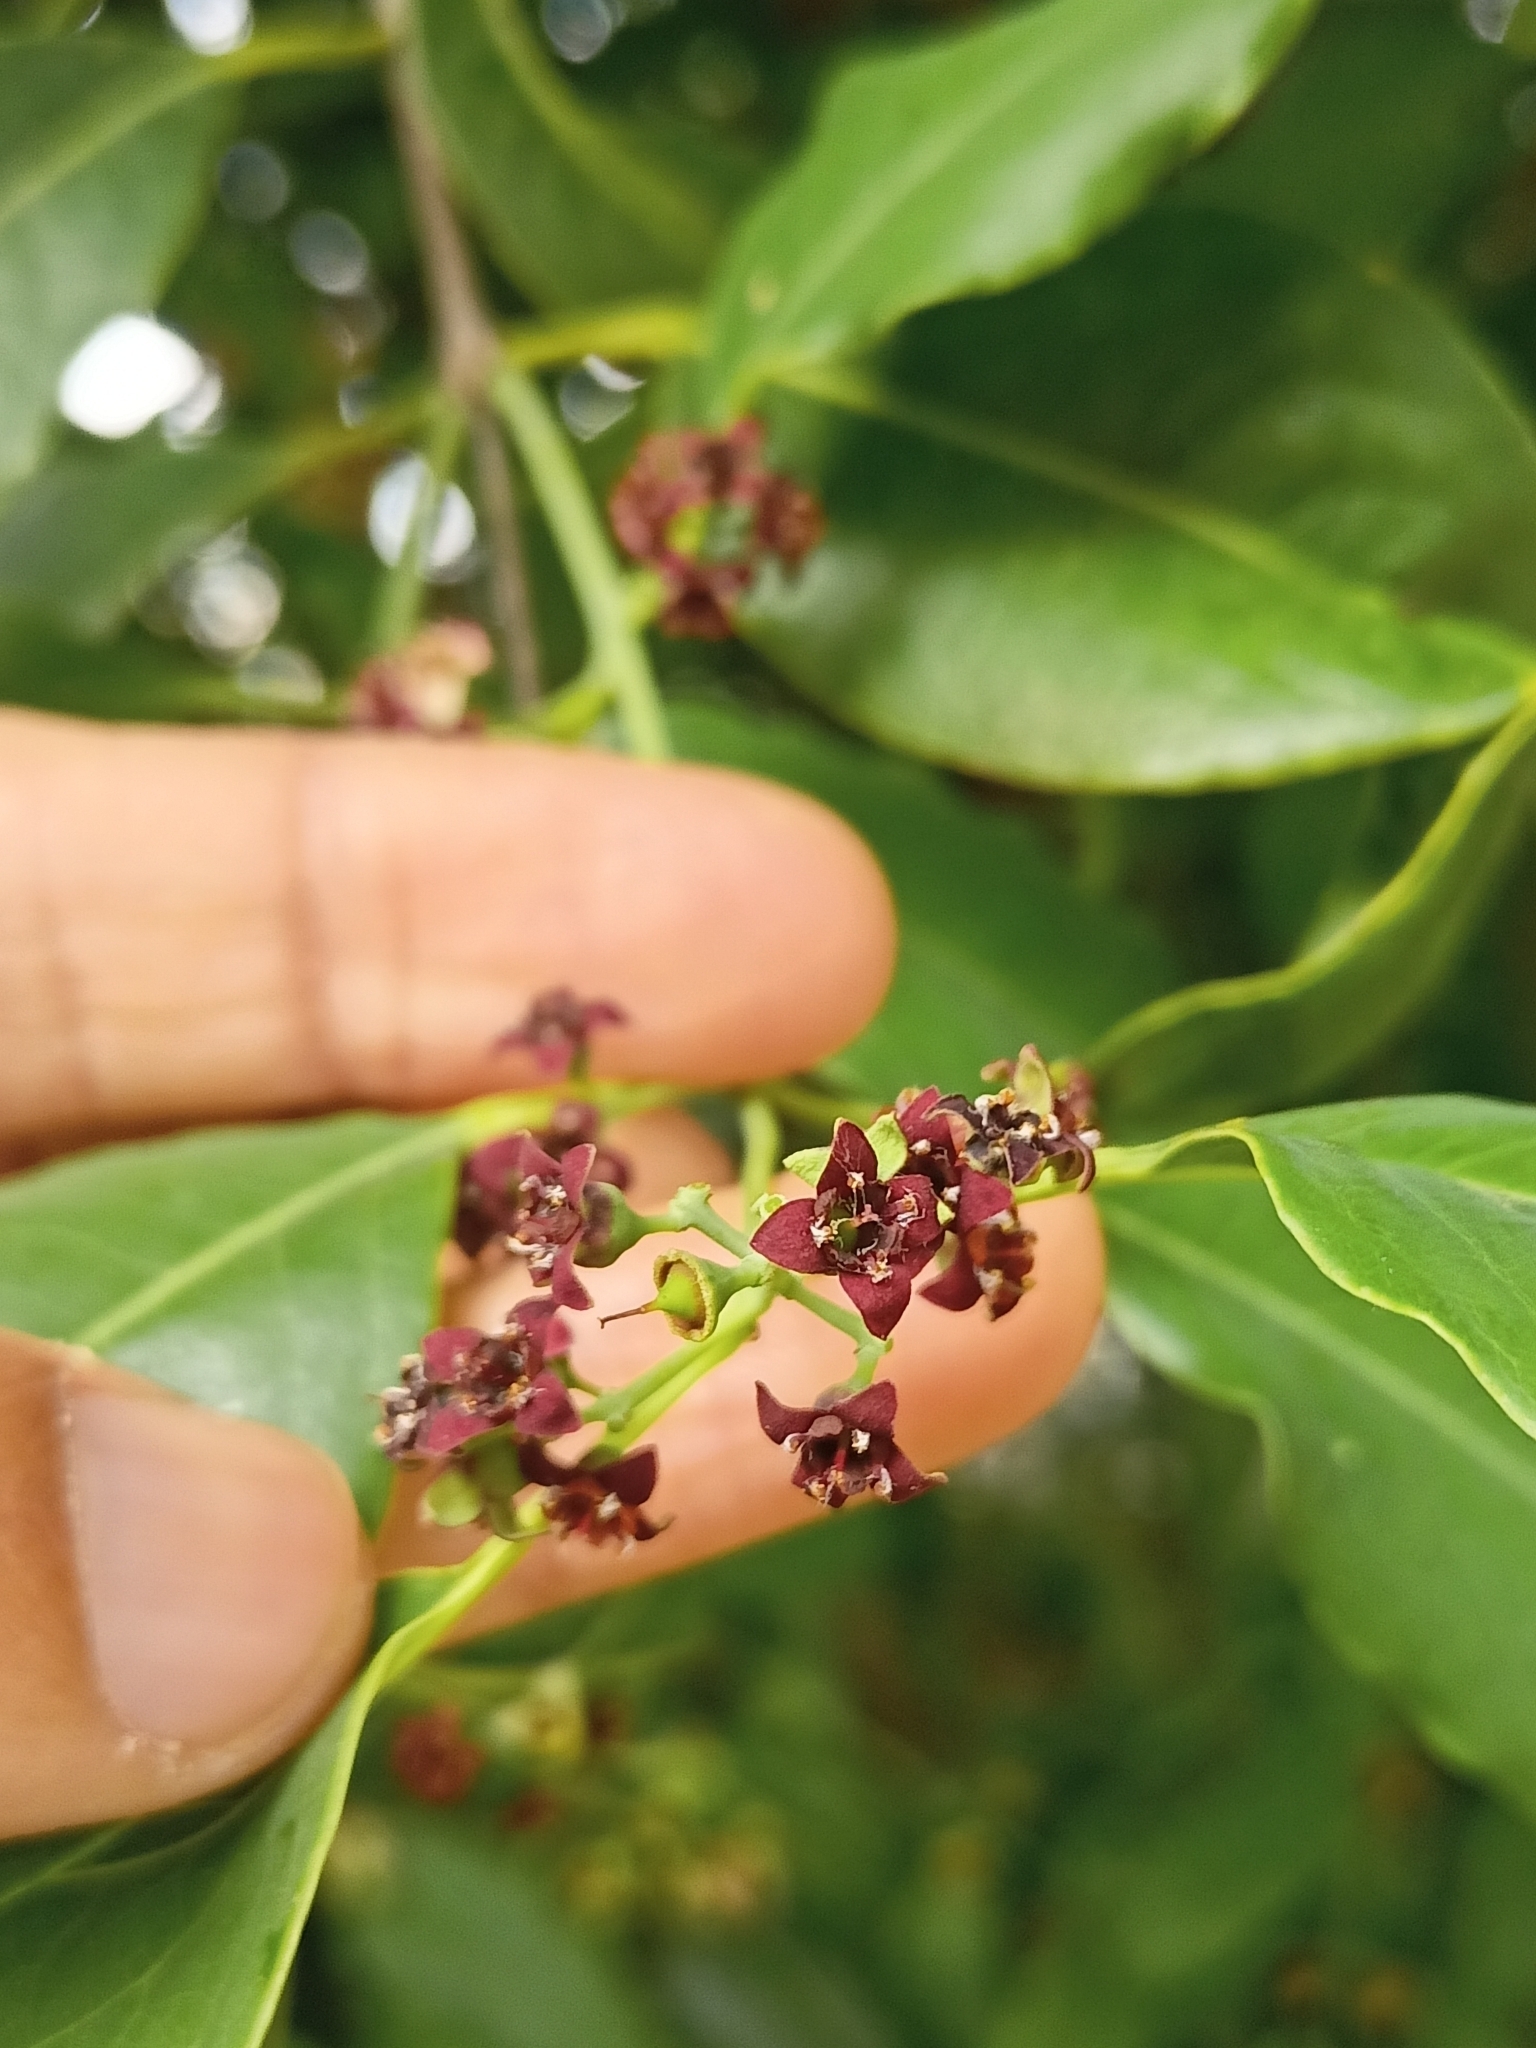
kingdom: Plantae
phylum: Tracheophyta
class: Magnoliopsida
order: Santalales
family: Santalaceae
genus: Santalum
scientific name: Santalum album
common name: Indian sandalwood
